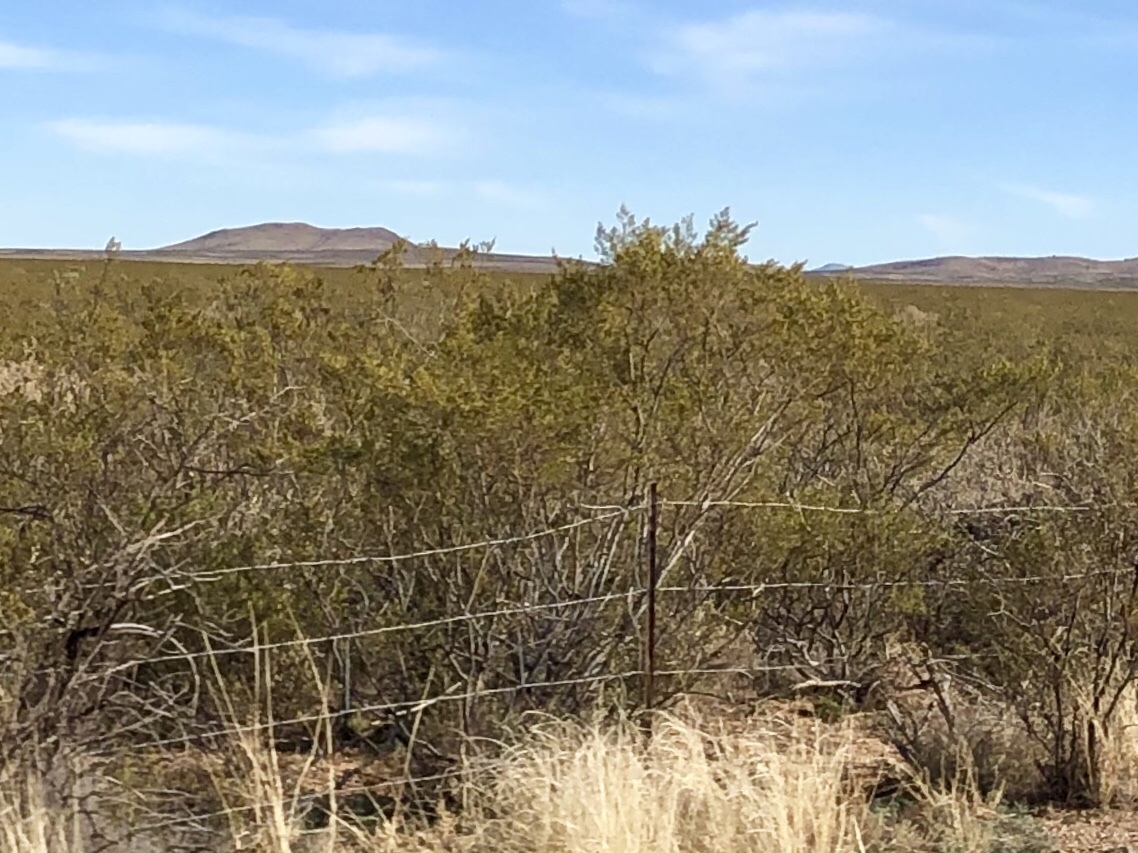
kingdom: Plantae
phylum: Tracheophyta
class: Magnoliopsida
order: Zygophyllales
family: Zygophyllaceae
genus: Larrea
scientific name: Larrea tridentata
